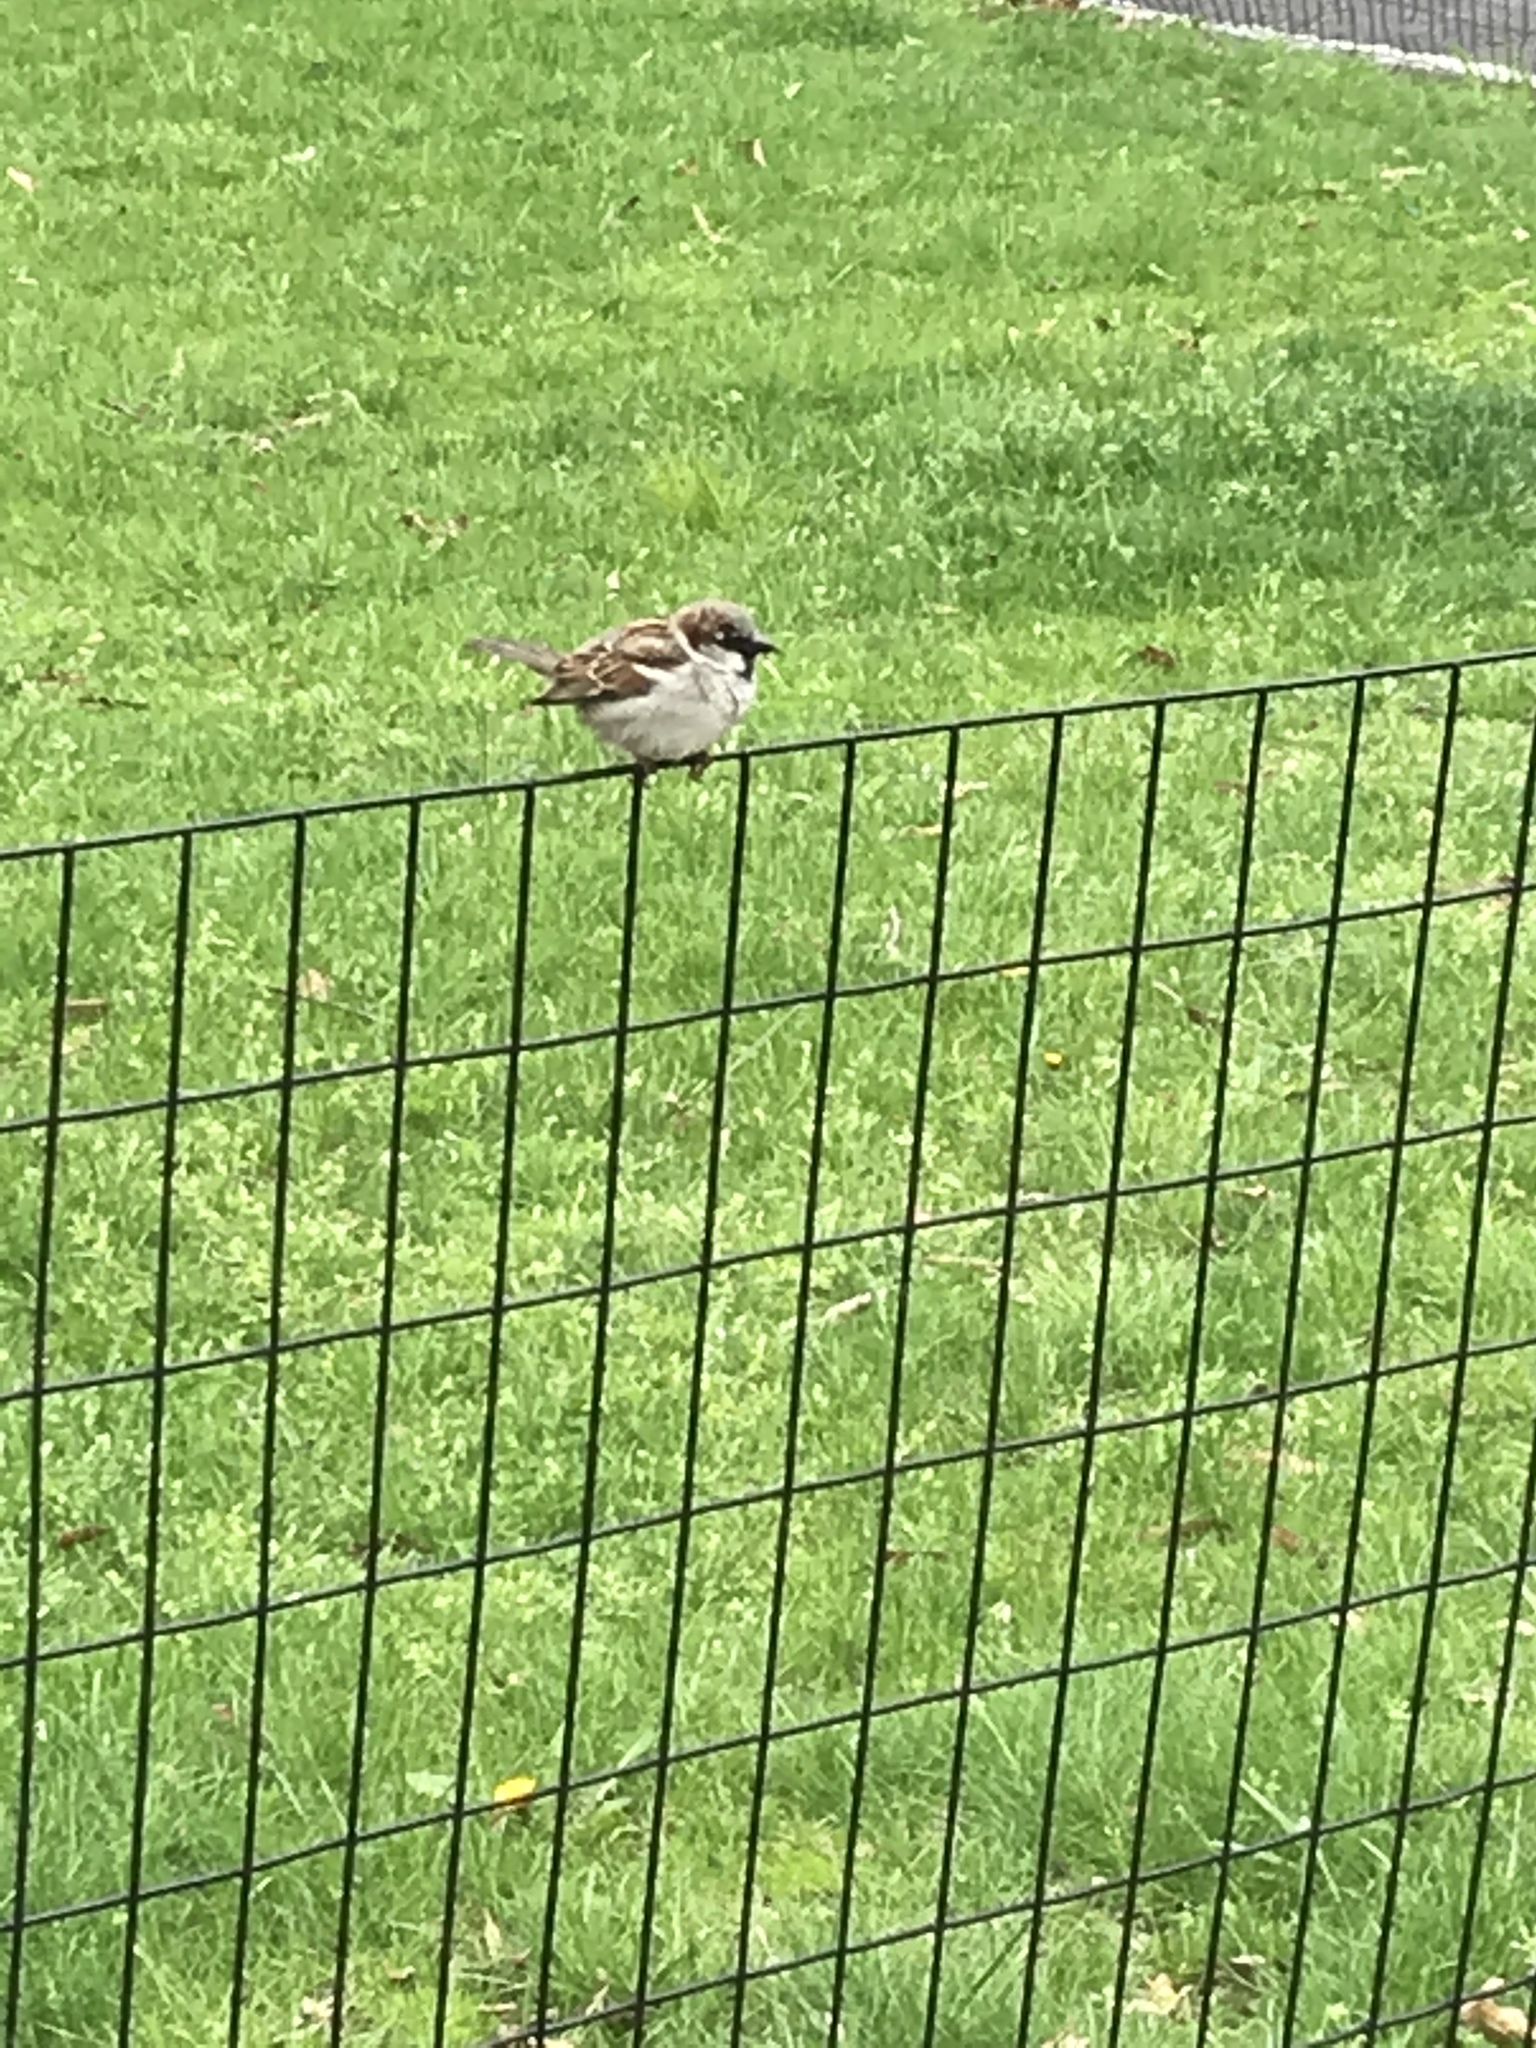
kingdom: Animalia
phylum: Chordata
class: Aves
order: Passeriformes
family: Passeridae
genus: Passer
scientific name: Passer domesticus
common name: House sparrow
